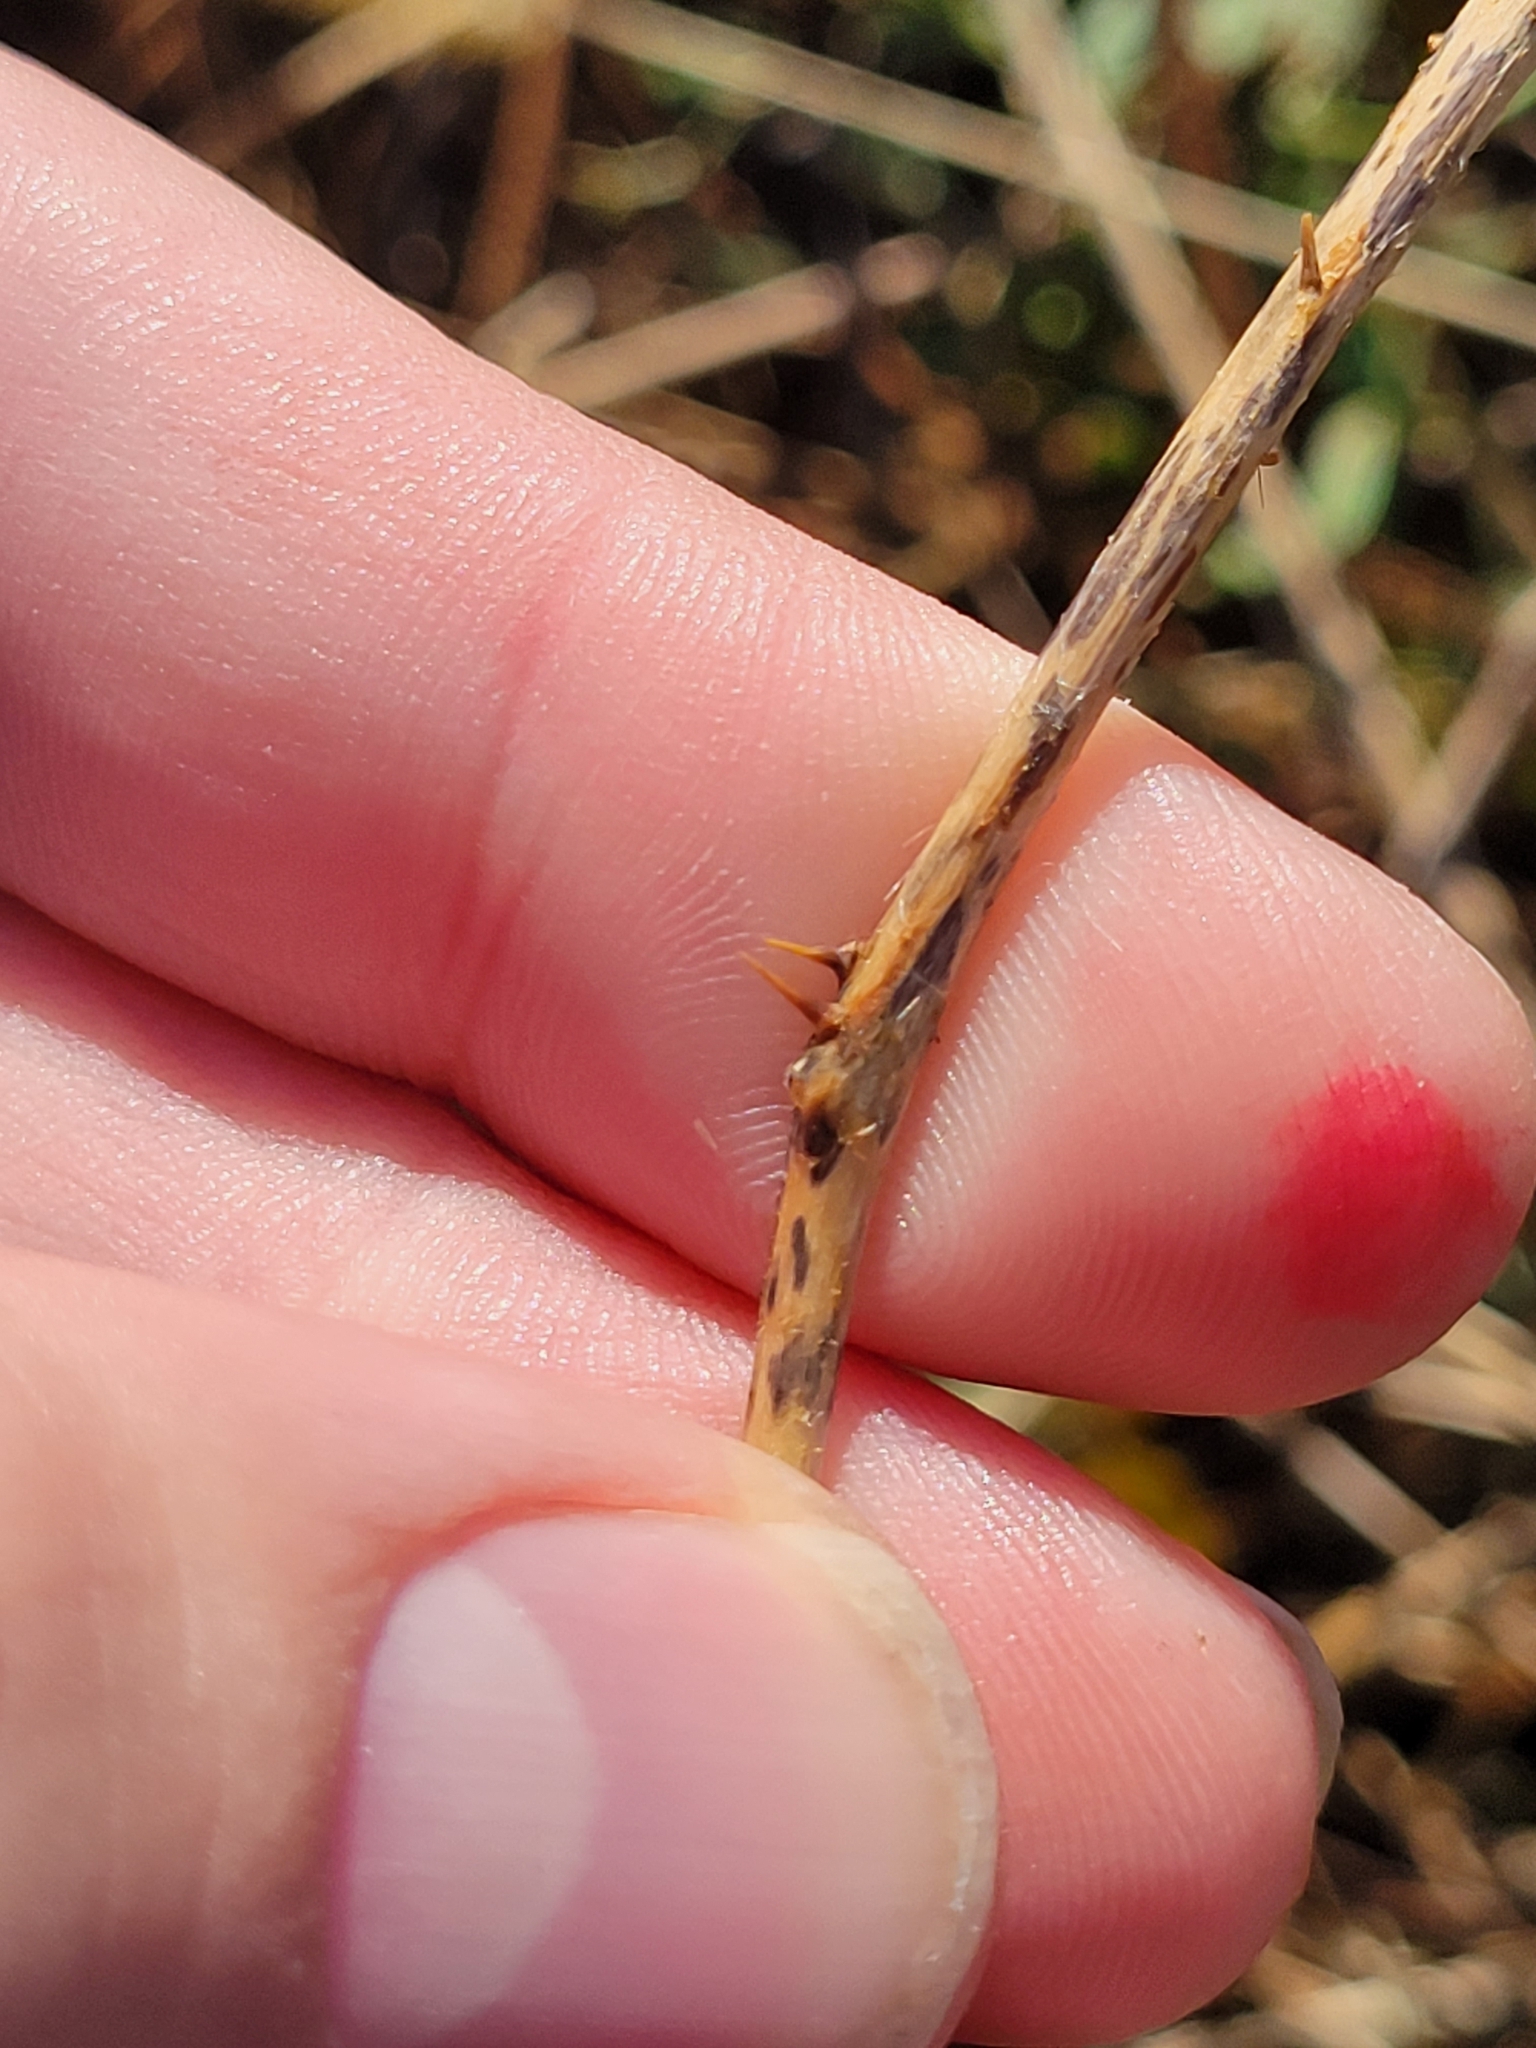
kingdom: Plantae
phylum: Tracheophyta
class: Magnoliopsida
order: Solanales
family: Solanaceae
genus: Solanum
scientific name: Solanum carolinense
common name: Horse-nettle
